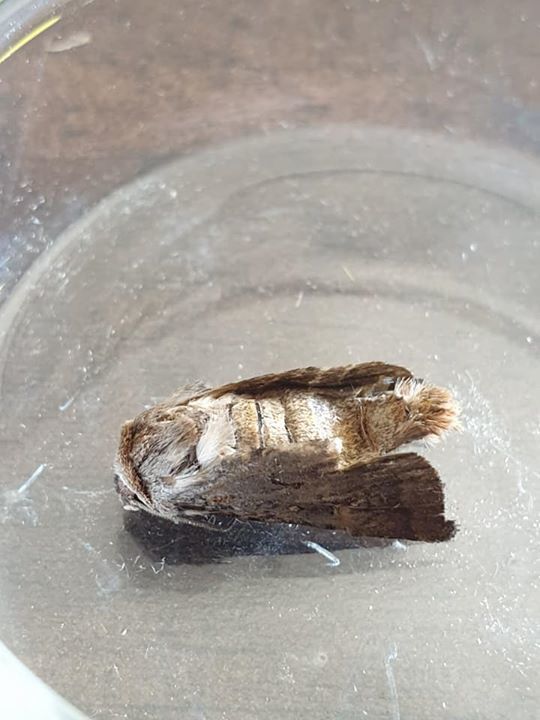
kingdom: Animalia
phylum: Arthropoda
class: Insecta
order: Lepidoptera
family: Noctuidae
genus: Proteuxoa
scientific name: Proteuxoa tetronycha
